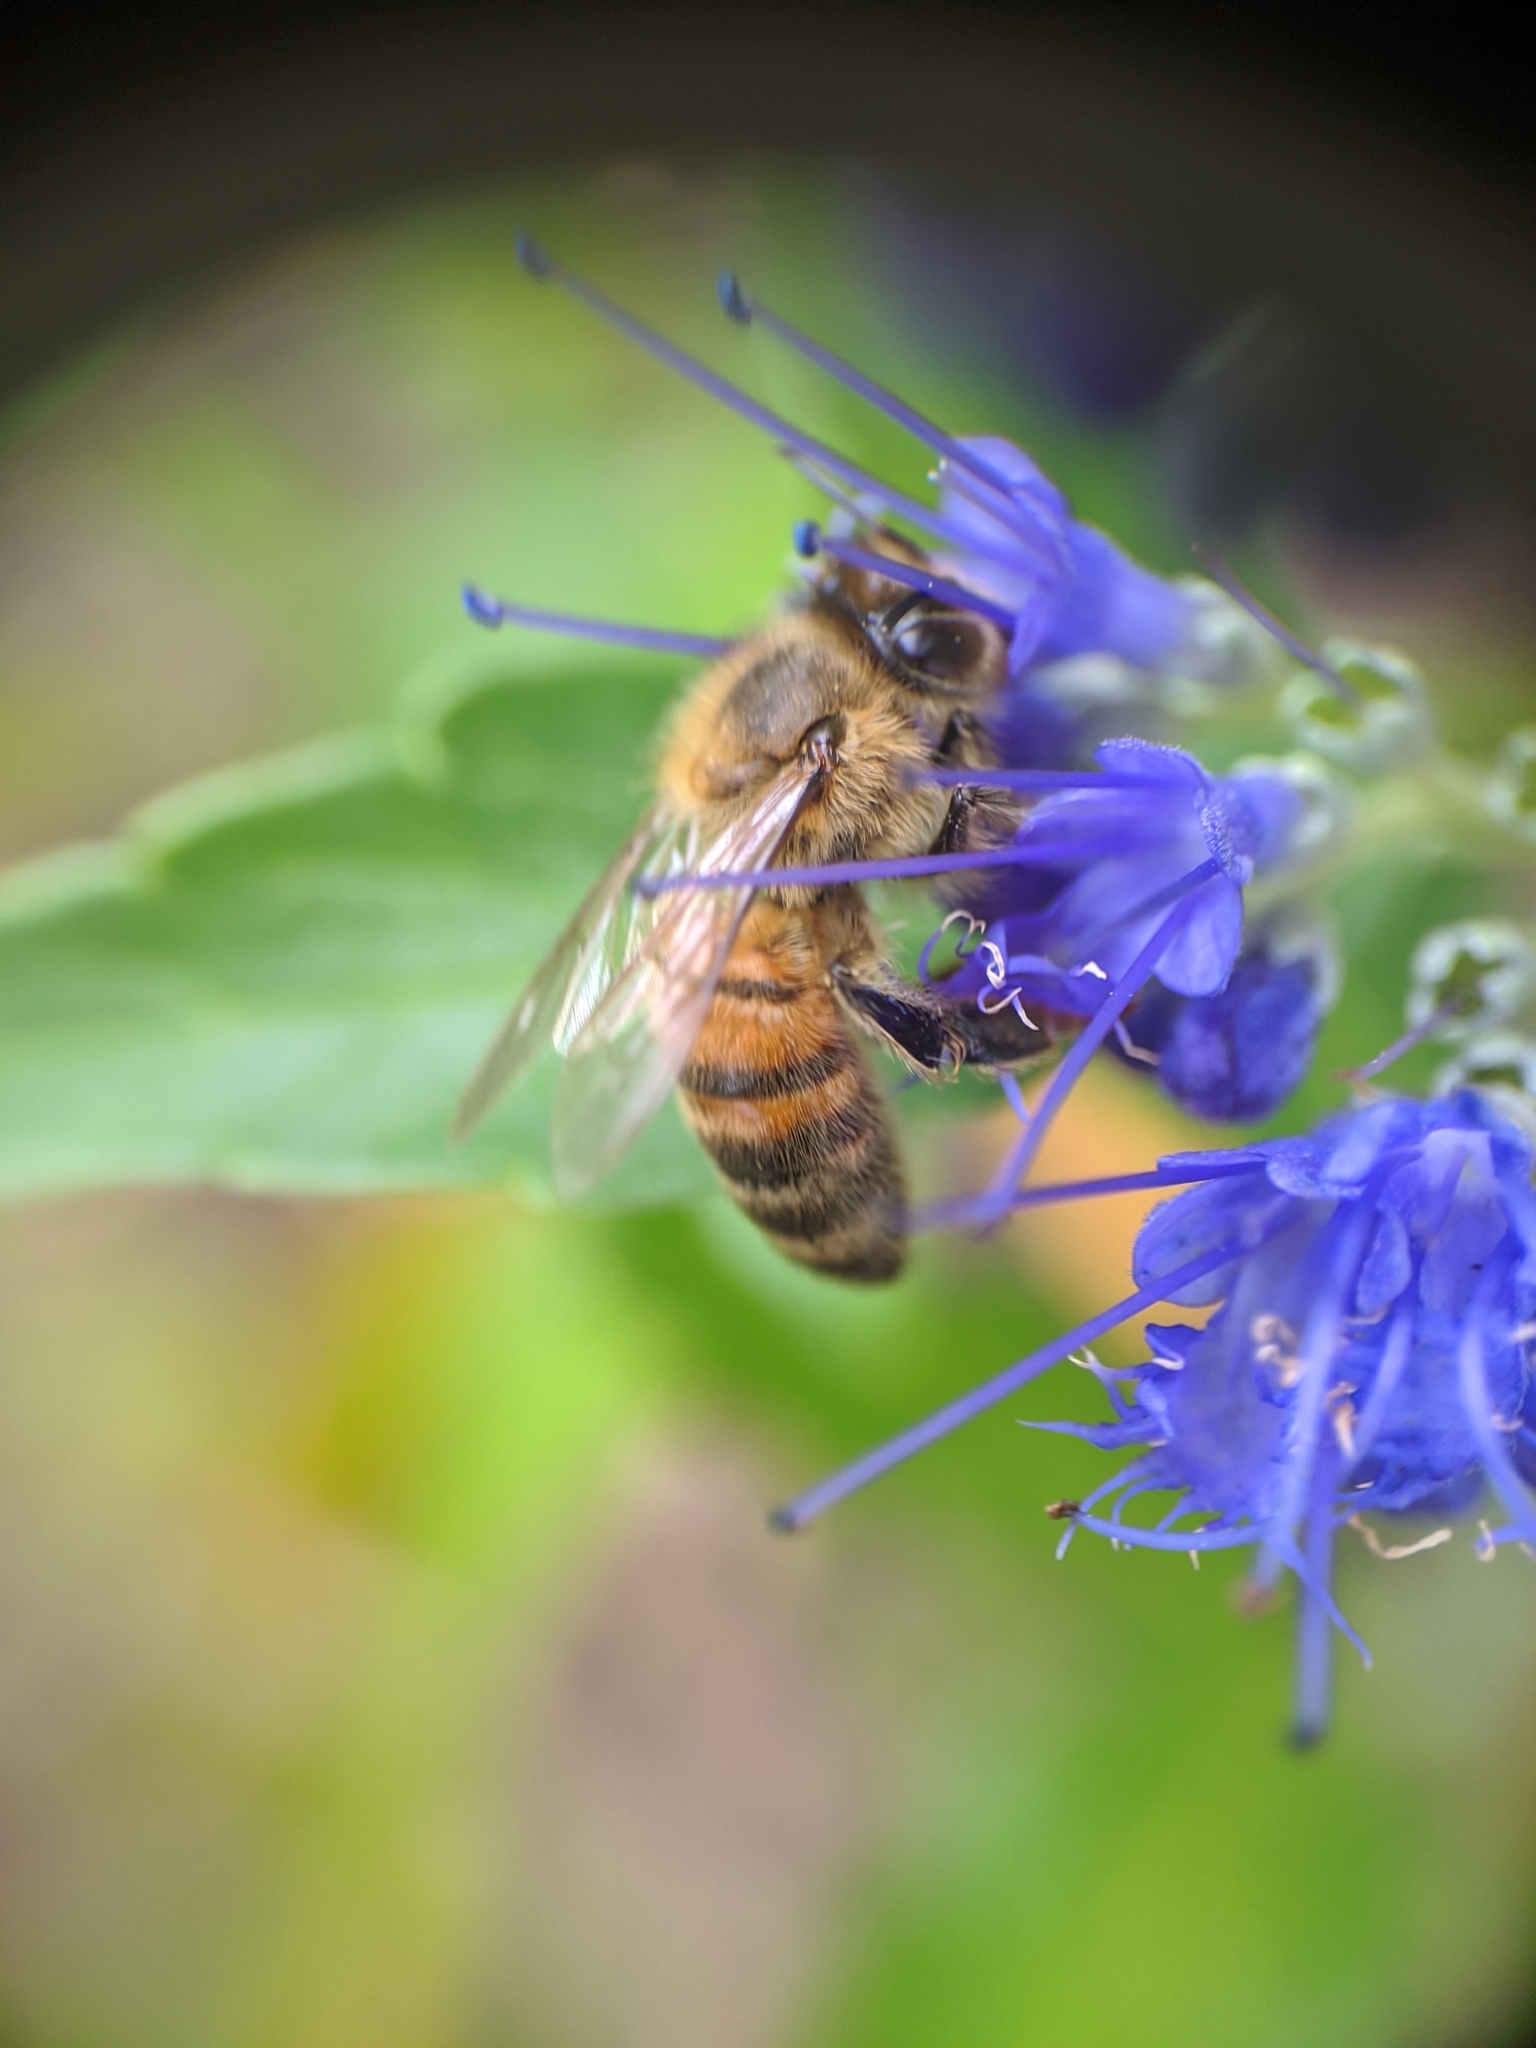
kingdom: Animalia
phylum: Arthropoda
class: Insecta
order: Hymenoptera
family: Apidae
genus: Apis
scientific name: Apis mellifera
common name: Honey bee
